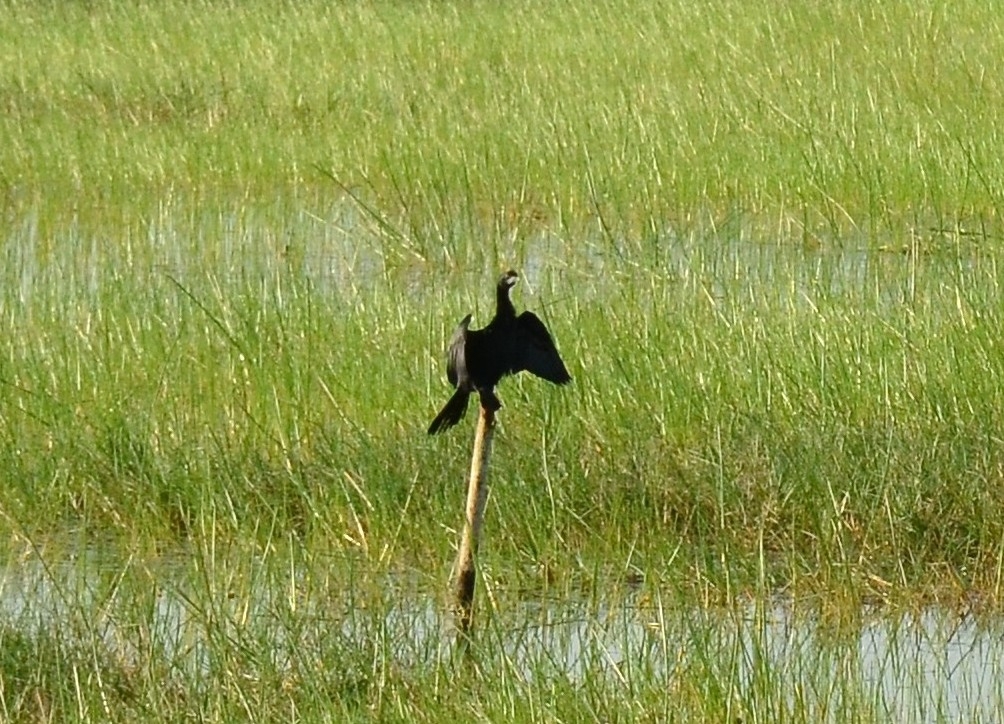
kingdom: Animalia
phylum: Chordata
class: Aves
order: Suliformes
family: Phalacrocoracidae
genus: Microcarbo
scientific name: Microcarbo niger
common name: Little cormorant
